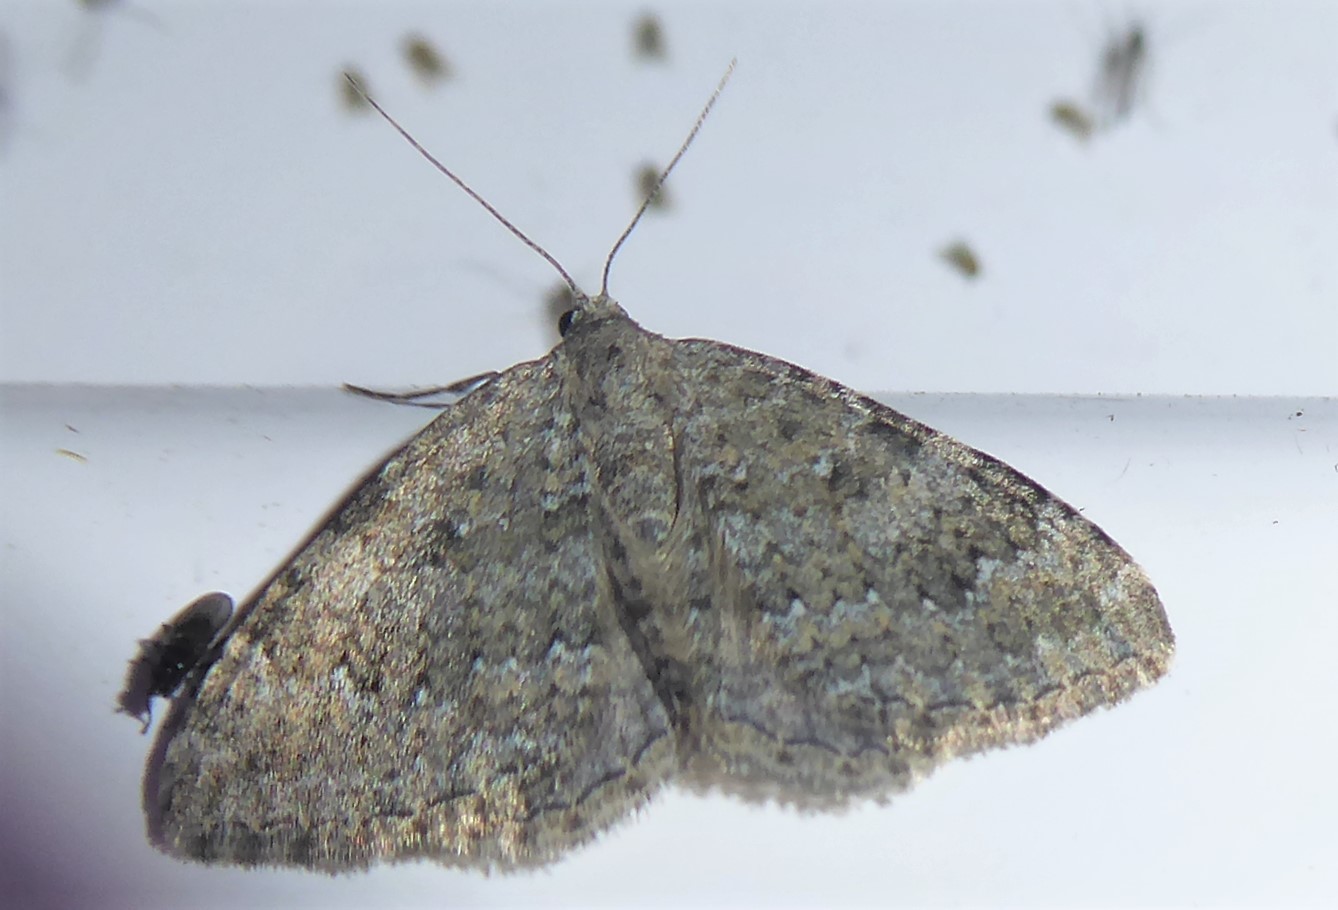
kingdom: Animalia
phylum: Arthropoda
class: Insecta
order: Lepidoptera
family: Geometridae
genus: Helastia
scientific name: Helastia corcularia
